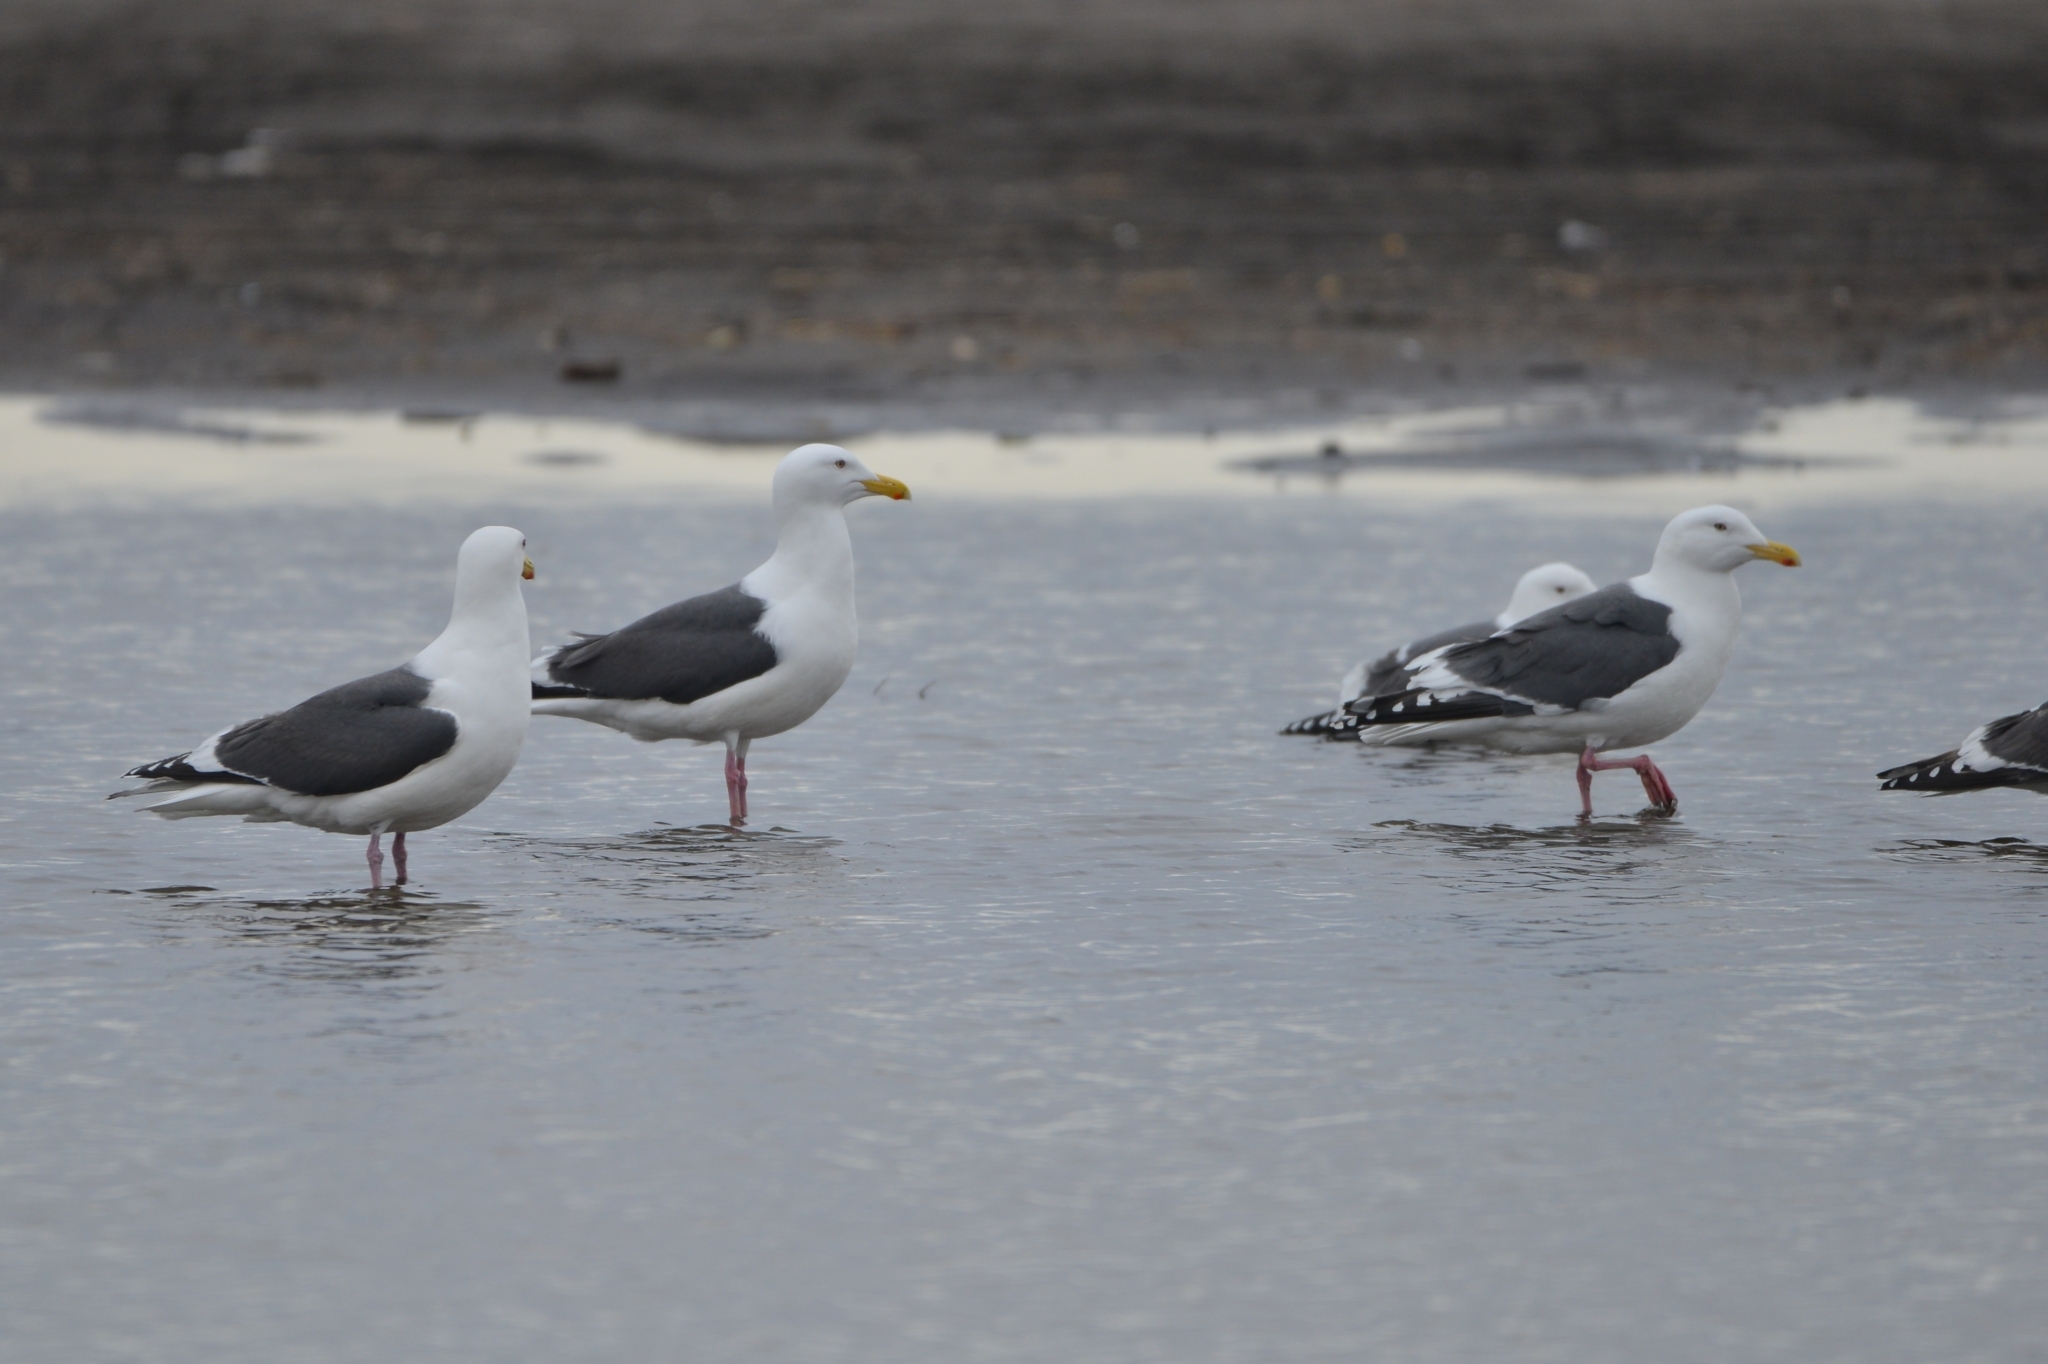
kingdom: Animalia
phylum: Chordata
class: Aves
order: Charadriiformes
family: Laridae
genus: Larus
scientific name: Larus schistisagus
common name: Slaty-backed gull
